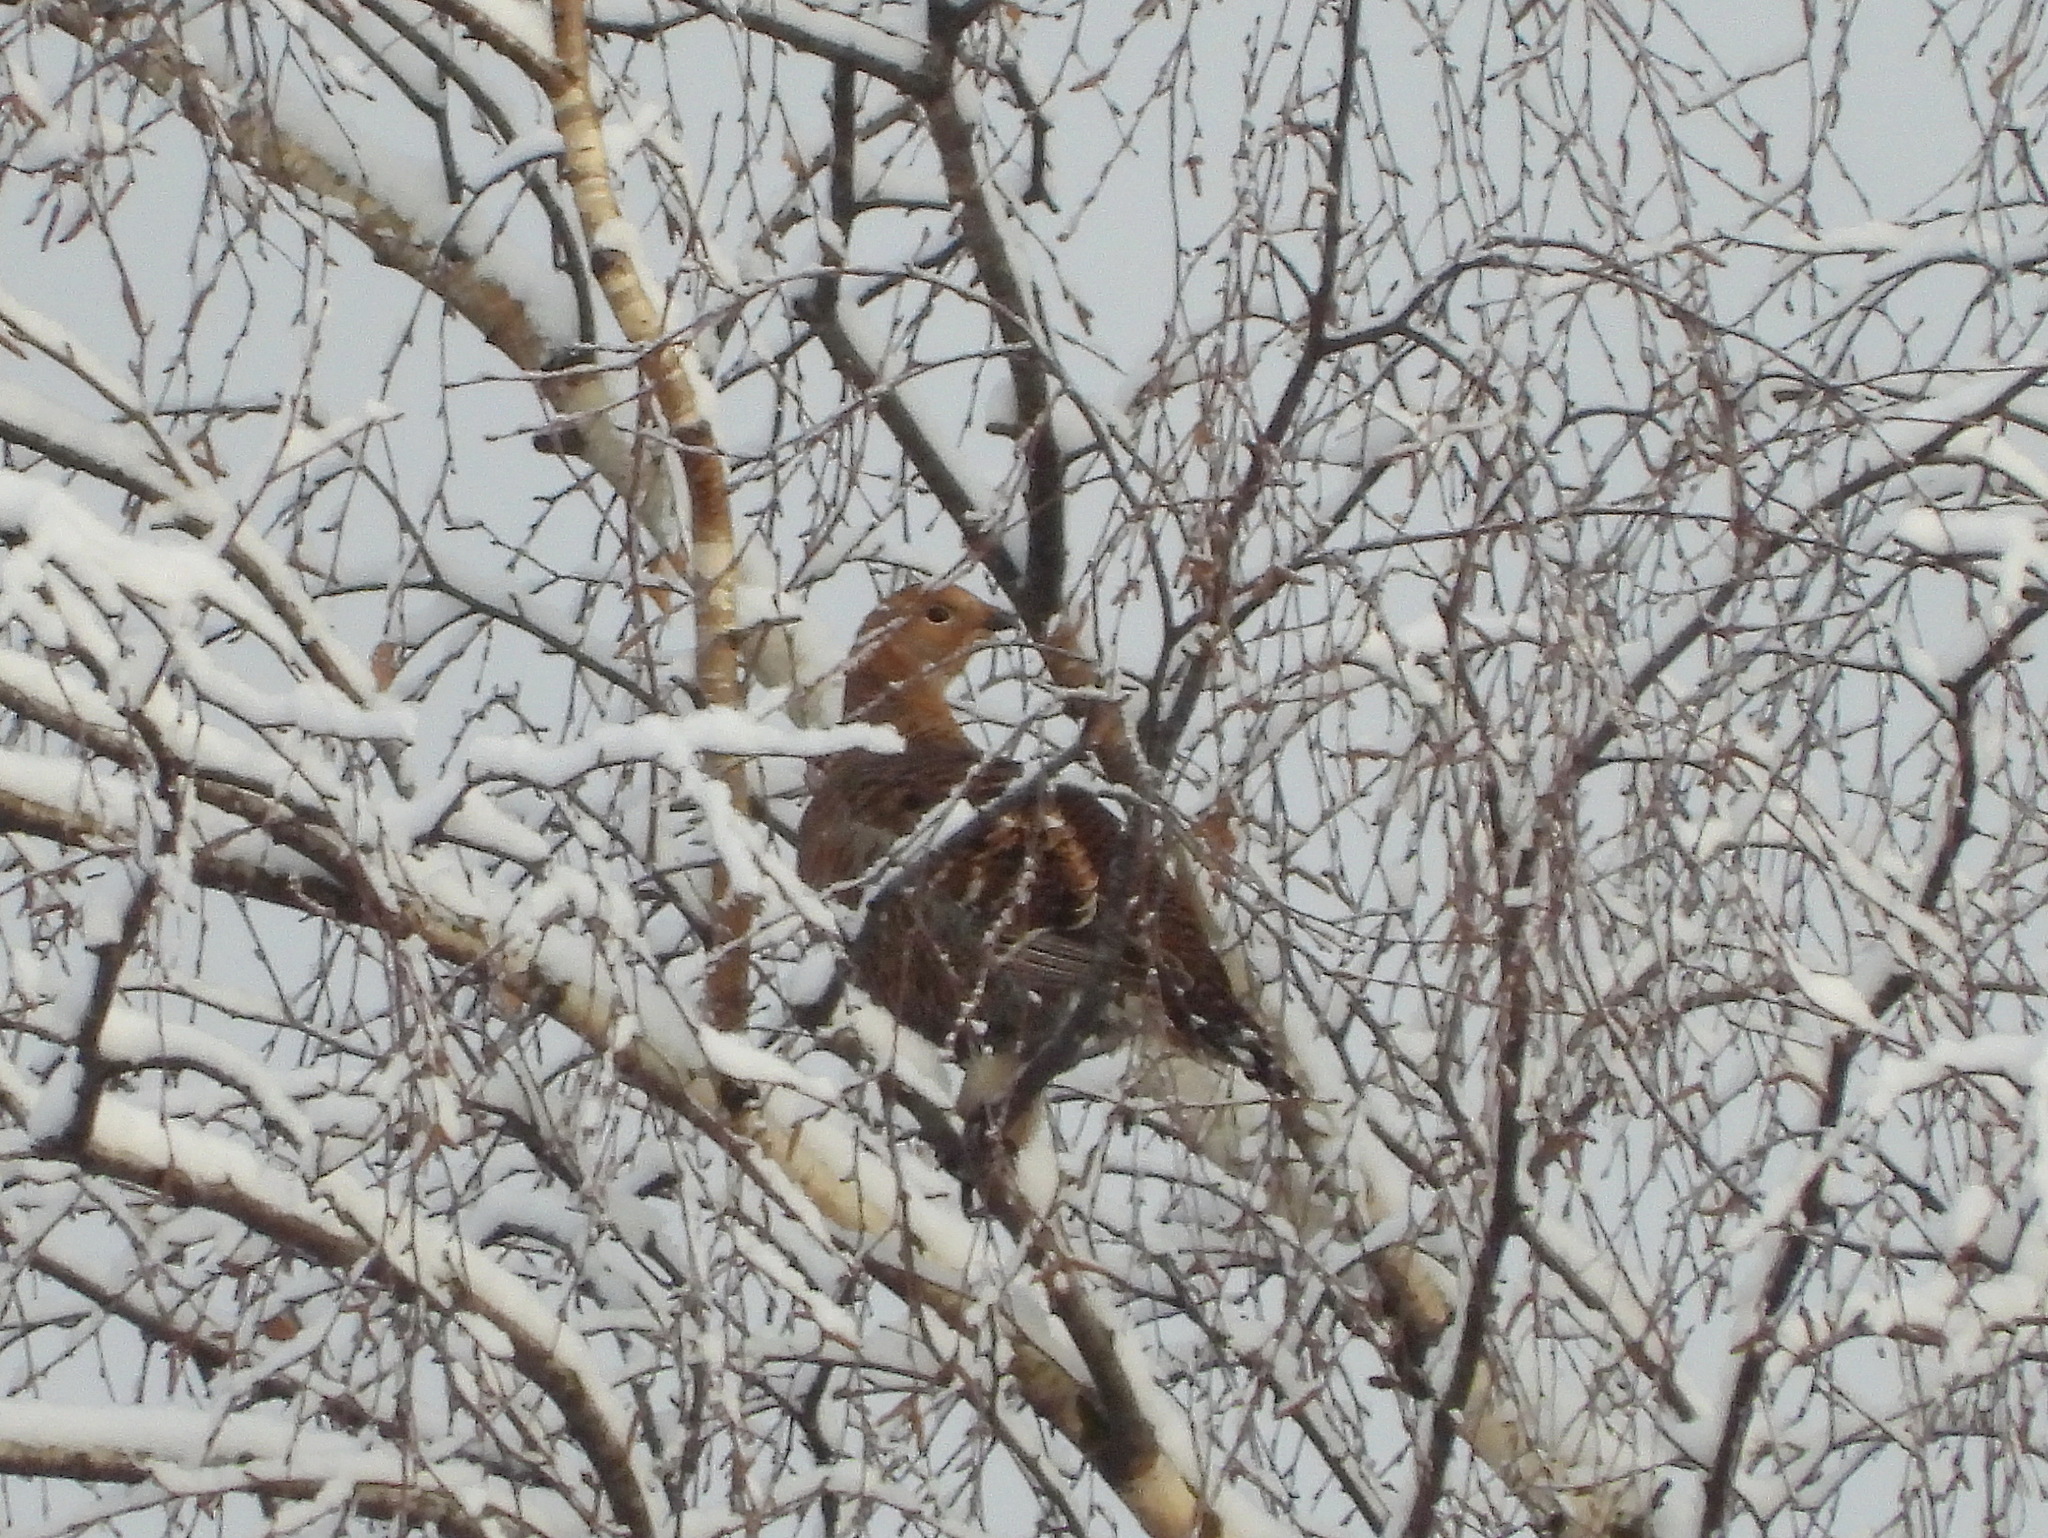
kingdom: Animalia
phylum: Chordata
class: Aves
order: Galliformes
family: Phasianidae
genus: Lyrurus
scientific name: Lyrurus tetrix
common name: Black grouse
